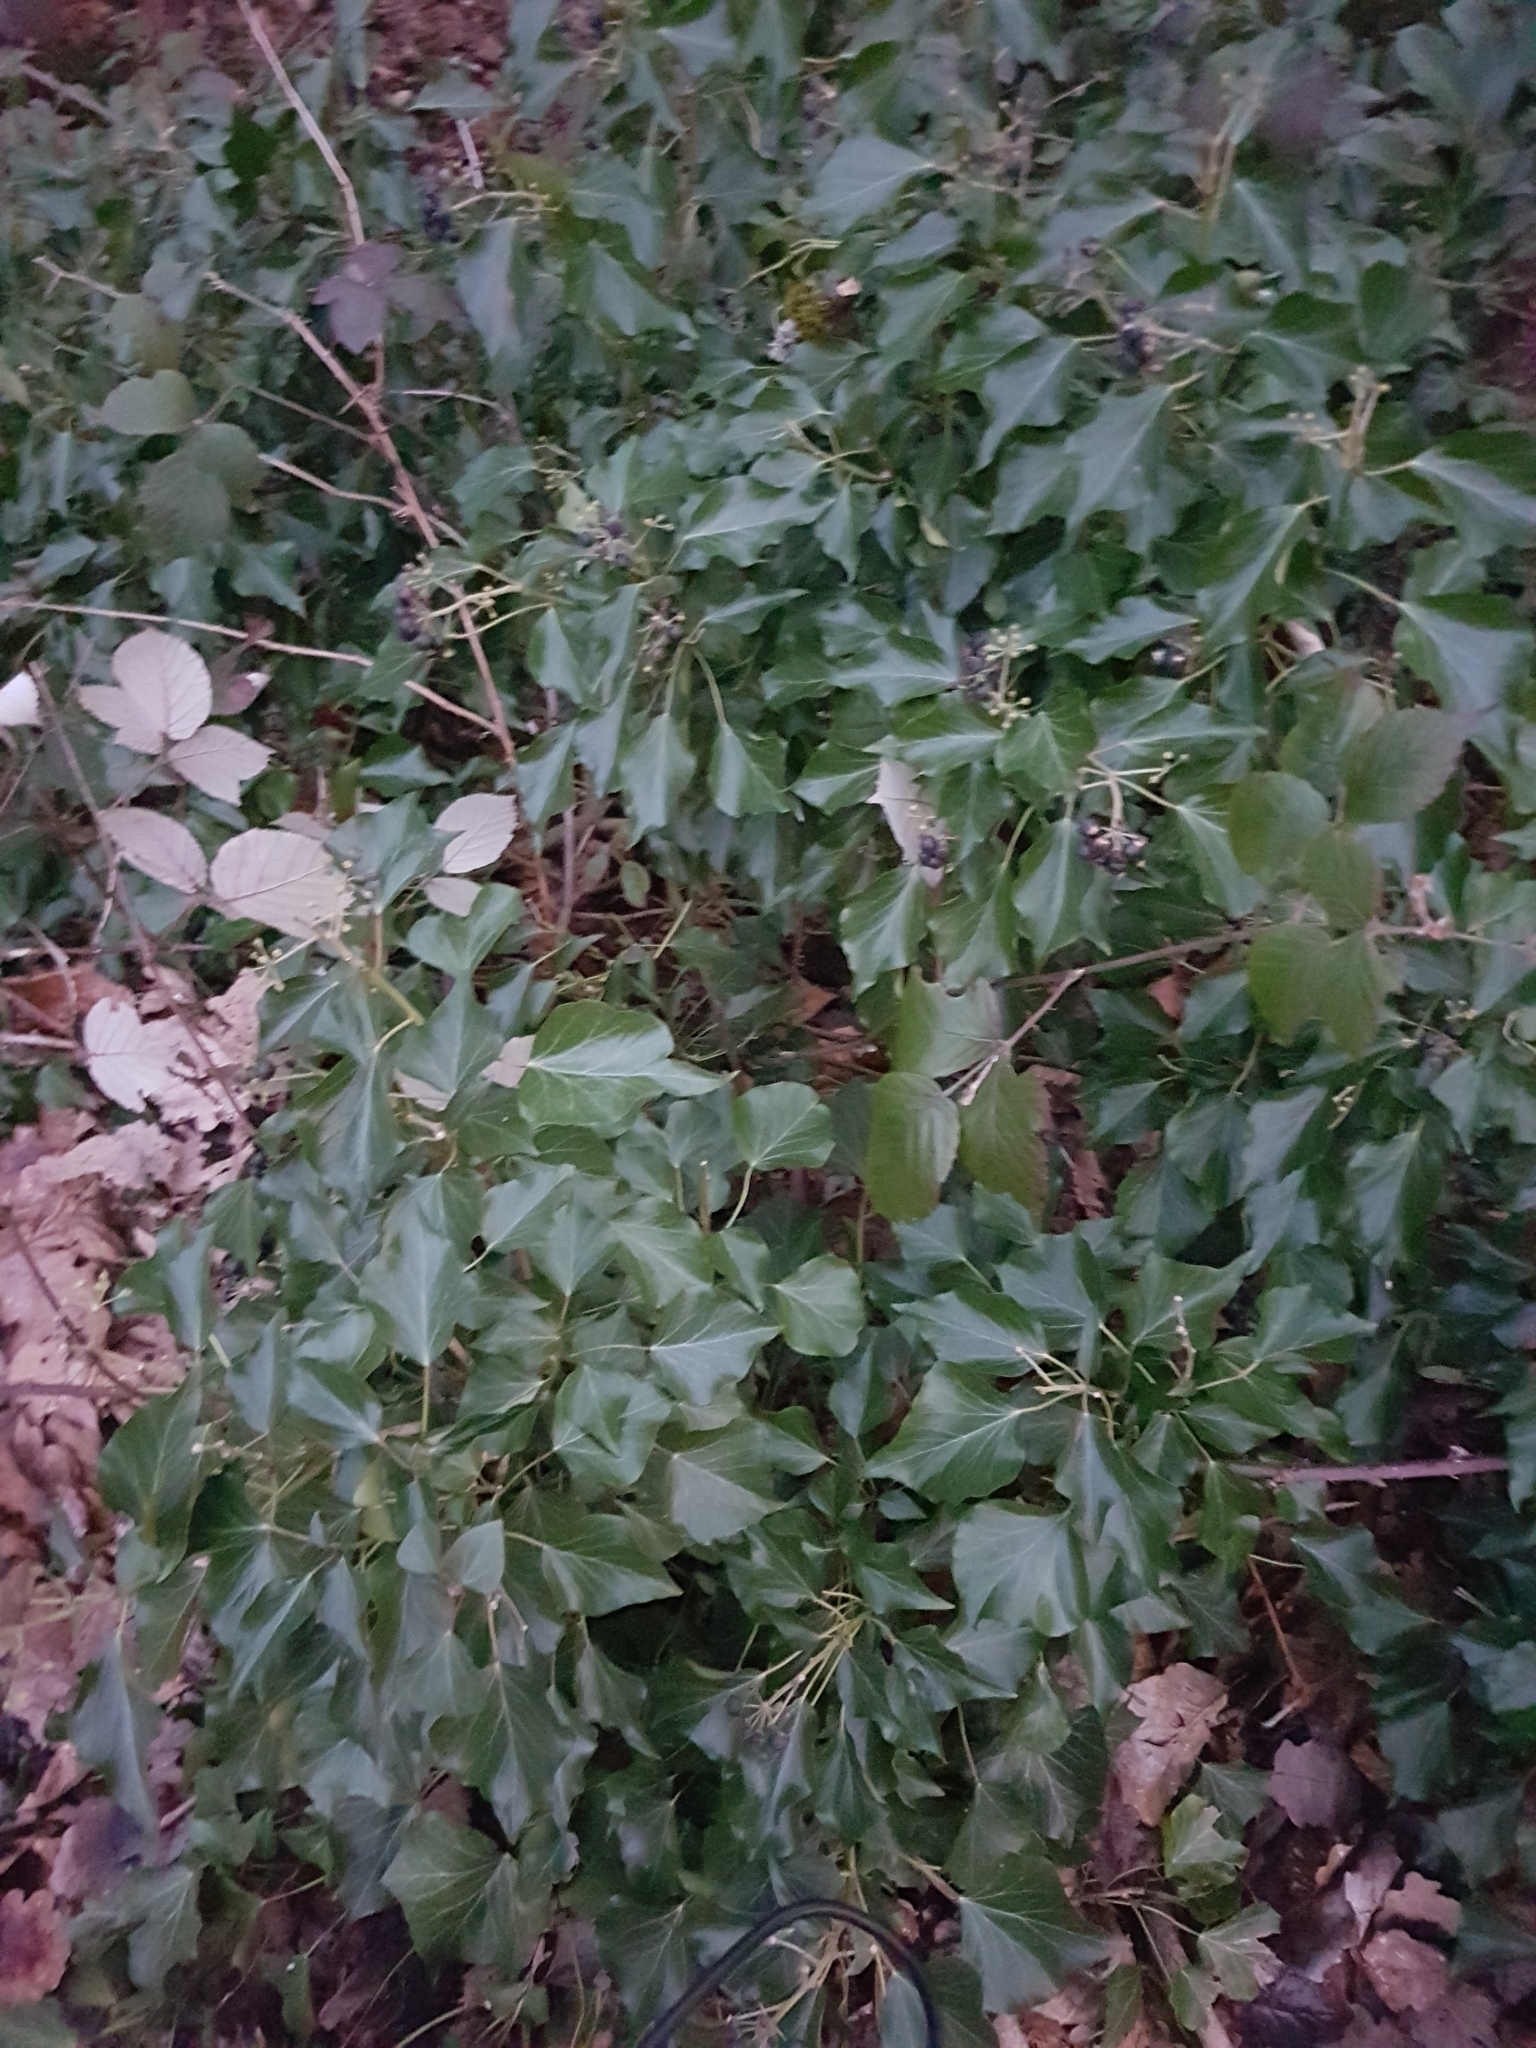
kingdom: Plantae
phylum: Tracheophyta
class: Magnoliopsida
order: Apiales
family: Araliaceae
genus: Hedera
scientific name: Hedera helix
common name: Ivy
